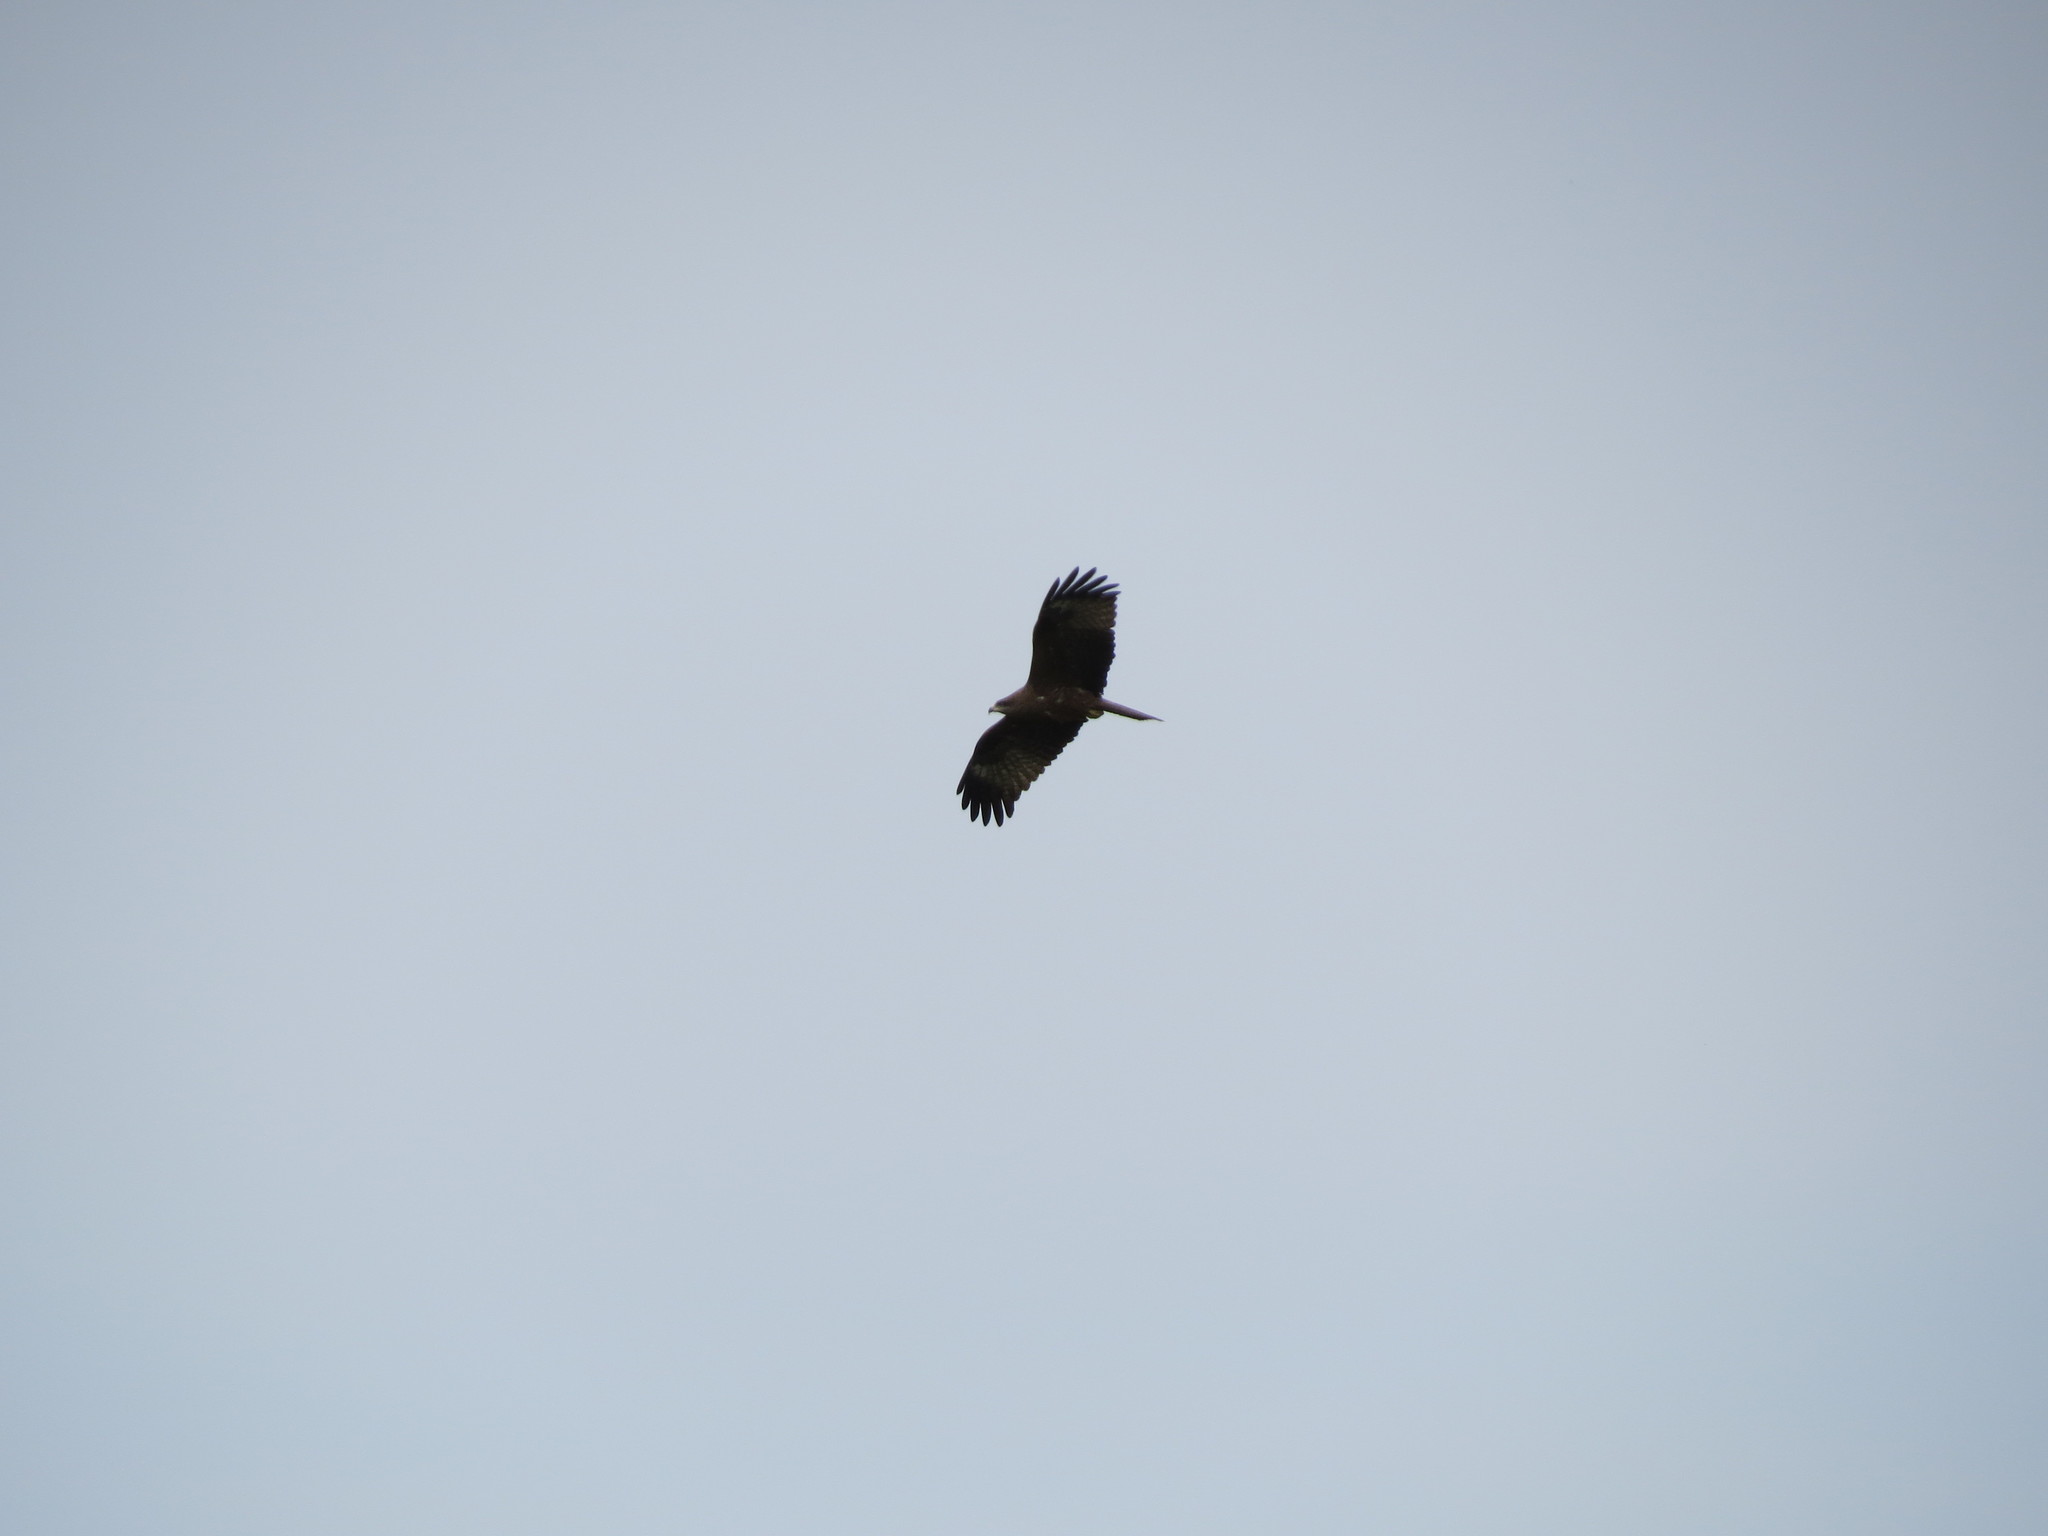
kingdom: Animalia
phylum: Chordata
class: Aves
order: Accipitriformes
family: Accipitridae
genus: Milvus
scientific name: Milvus migrans
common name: Black kite
